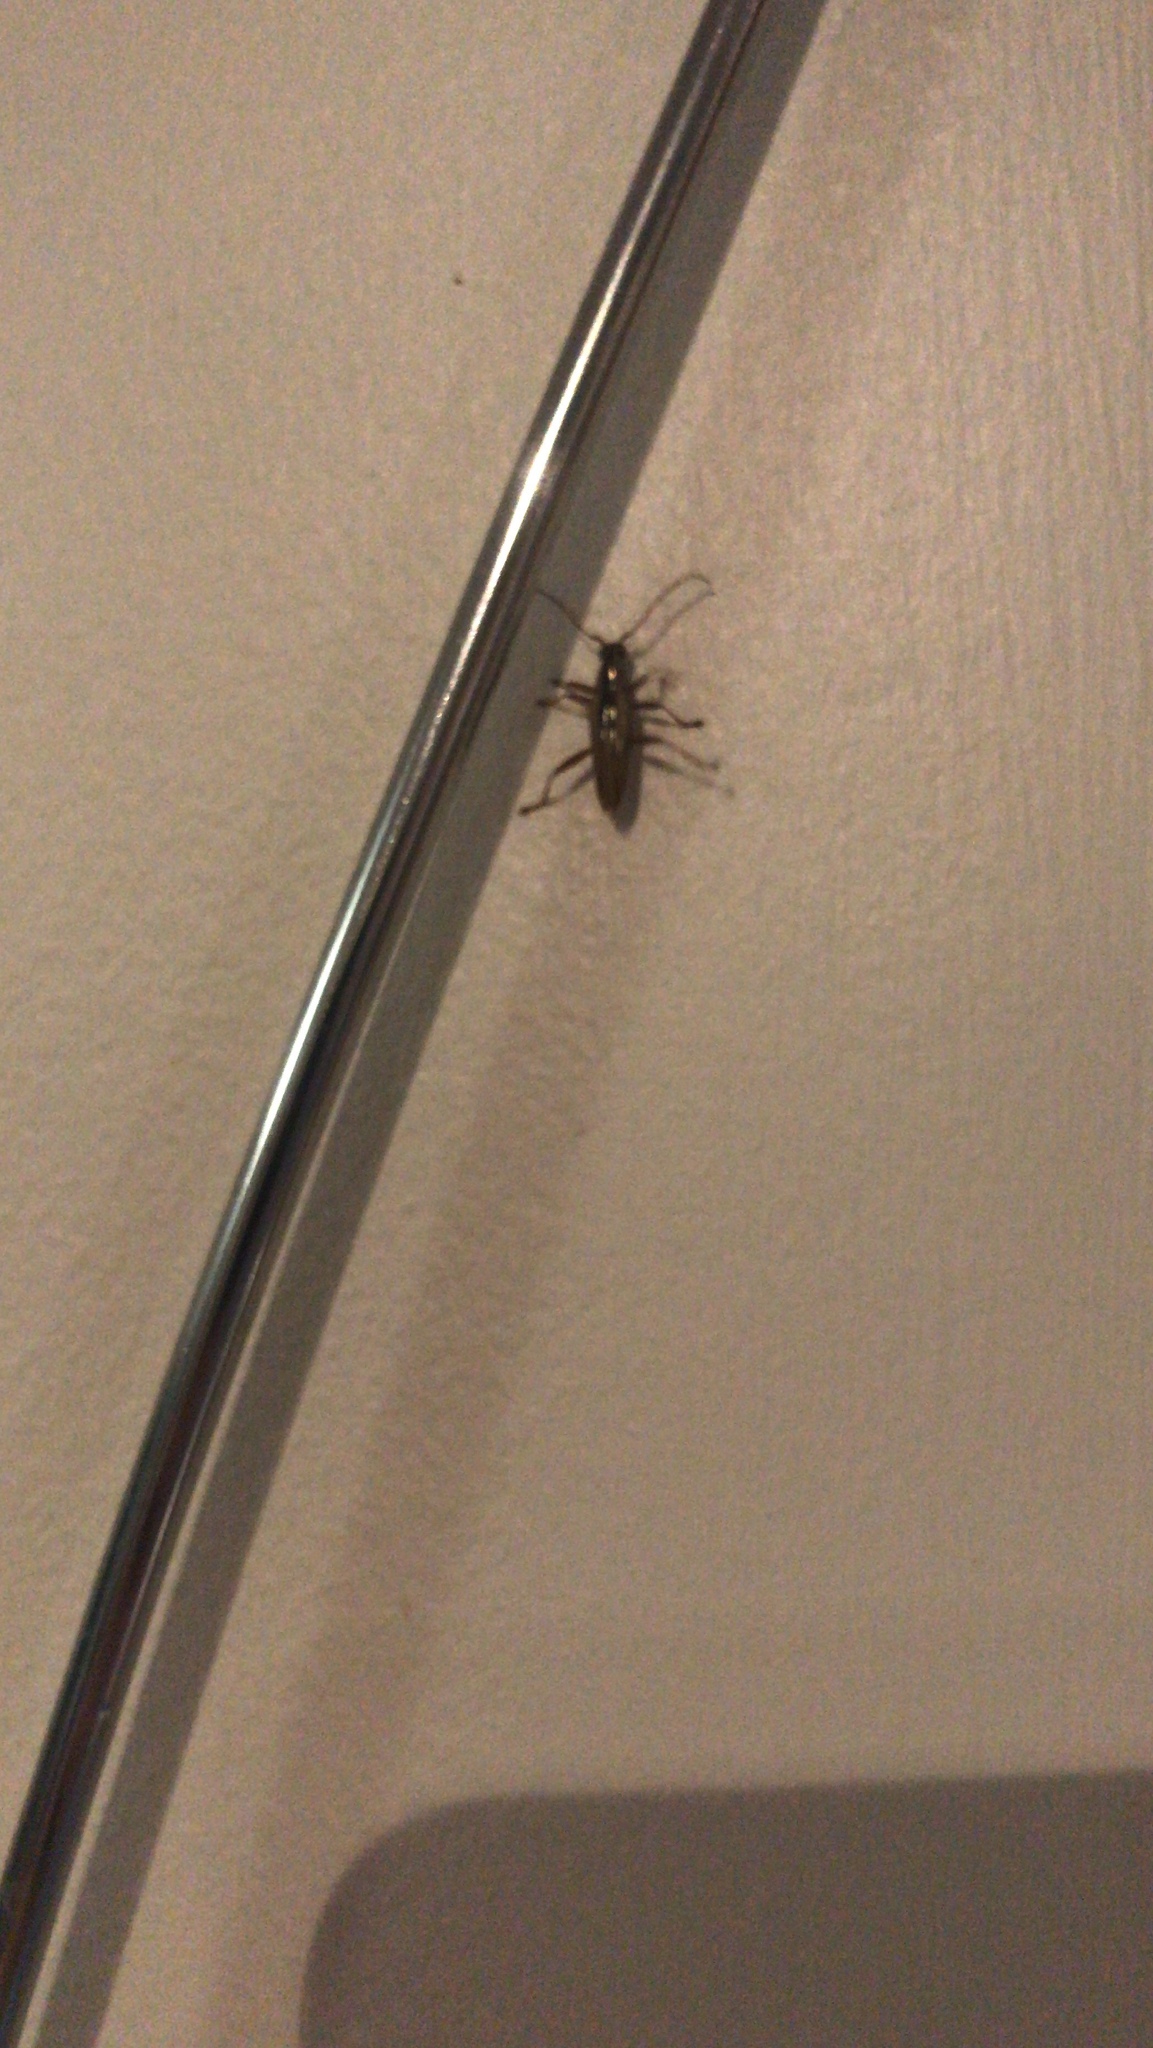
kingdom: Animalia
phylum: Arthropoda
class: Insecta
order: Coleoptera
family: Cerambycidae
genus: Coptomma
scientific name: Coptomma sulcatum
